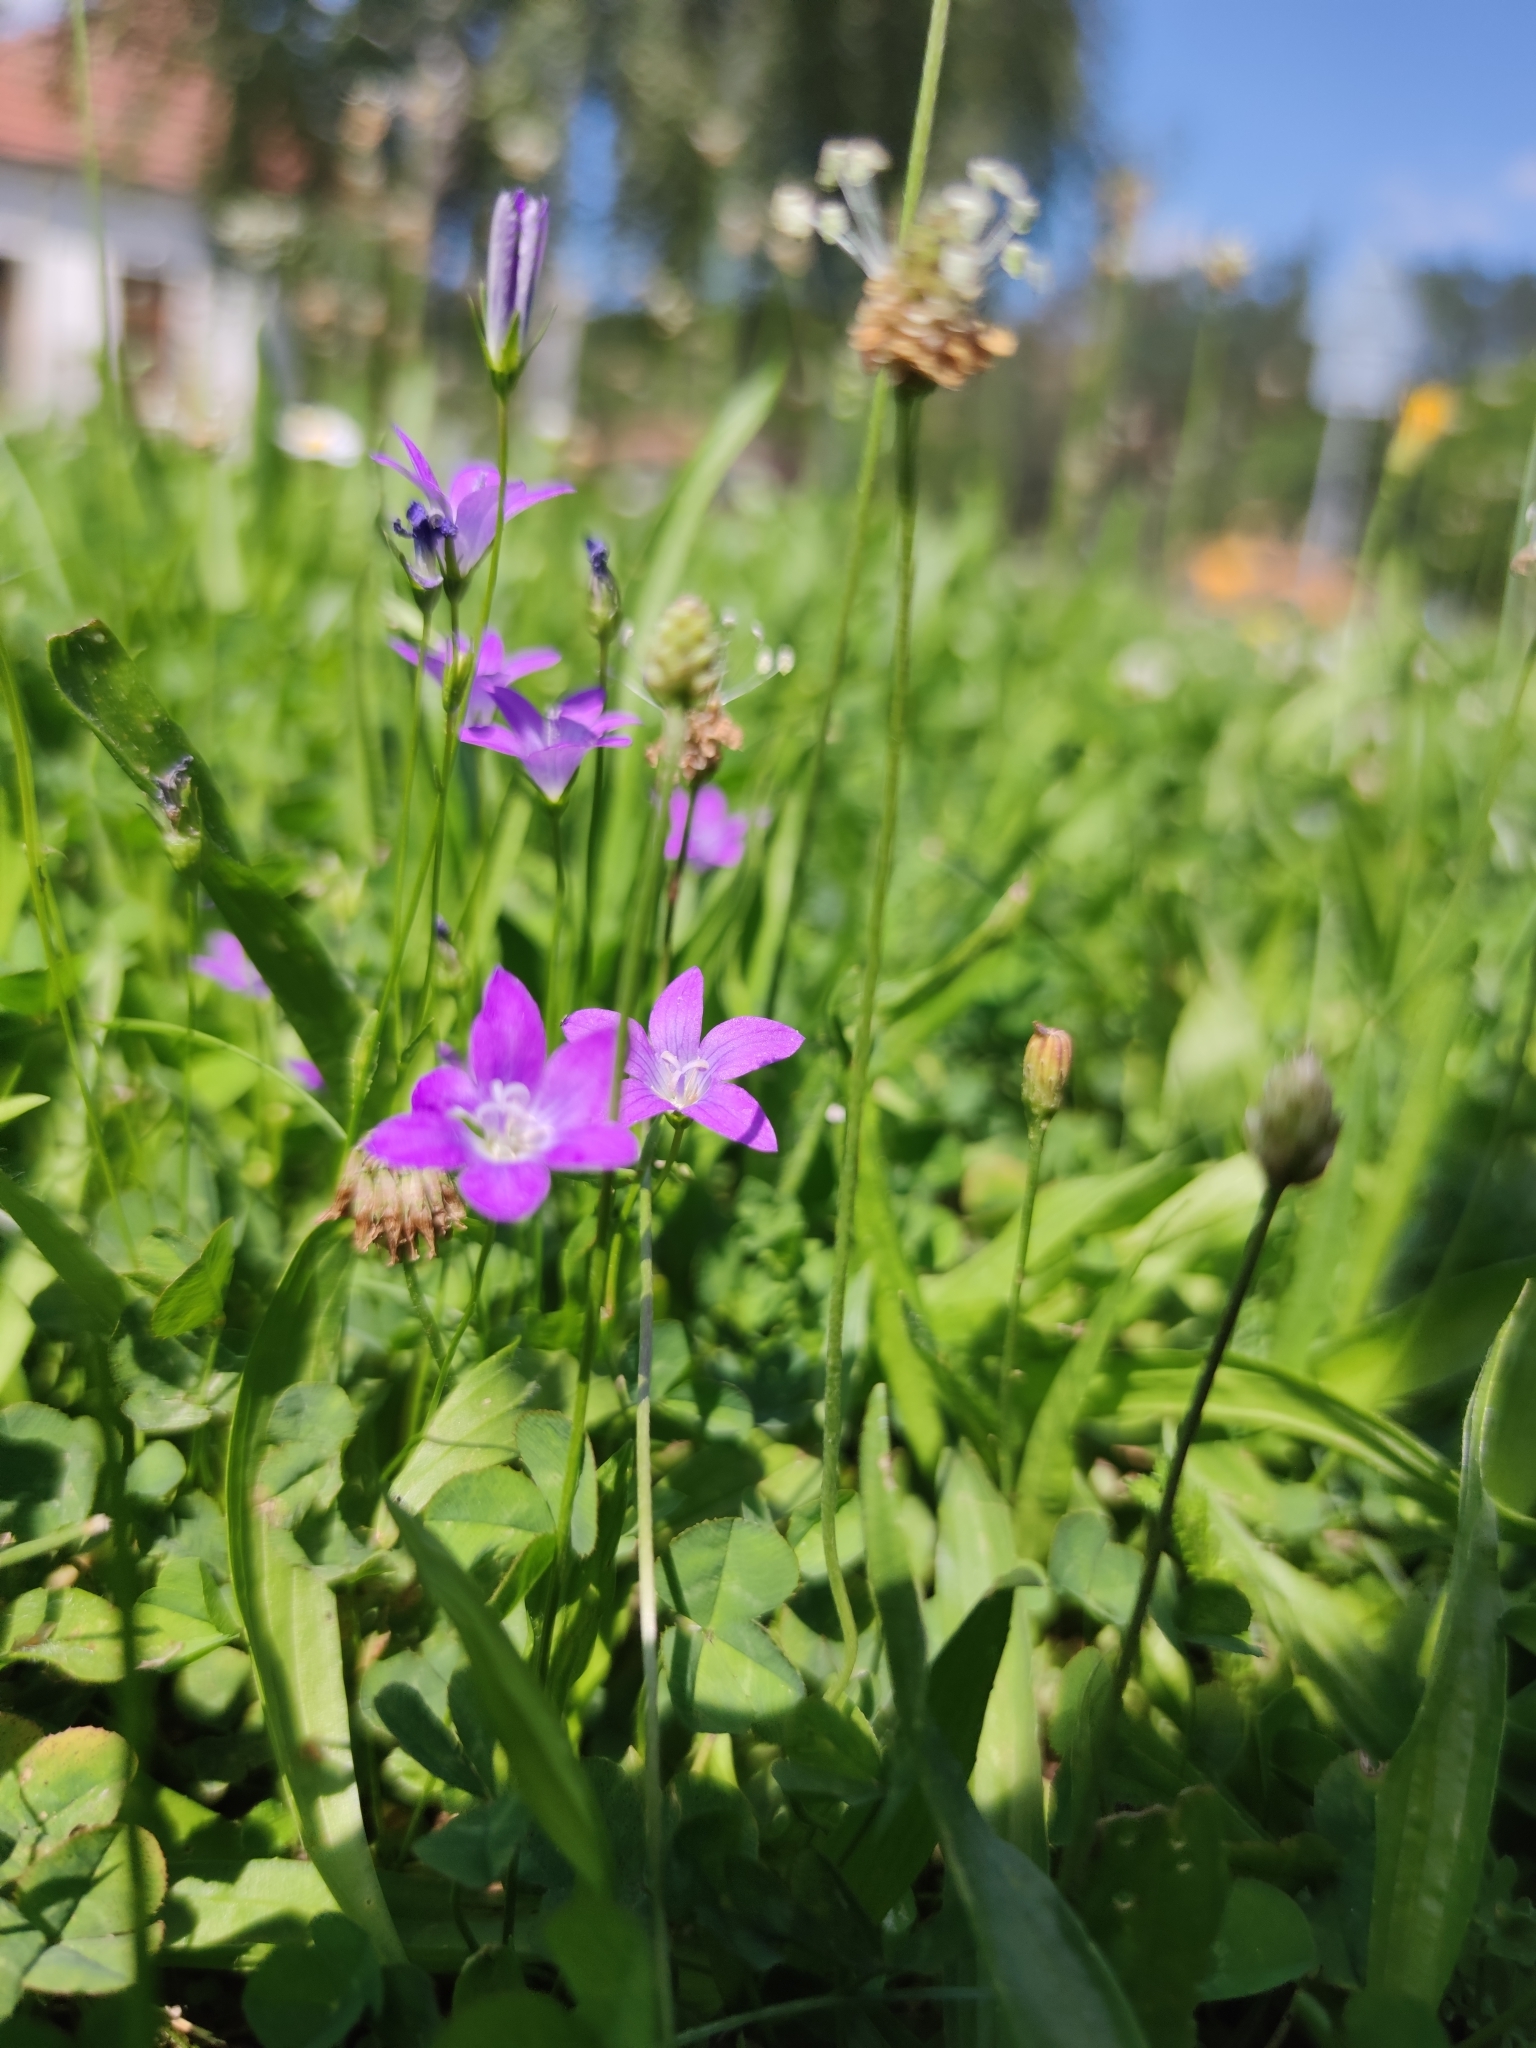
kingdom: Plantae
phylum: Tracheophyta
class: Magnoliopsida
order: Asterales
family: Campanulaceae
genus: Campanula
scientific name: Campanula patula
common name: Spreading bellflower
